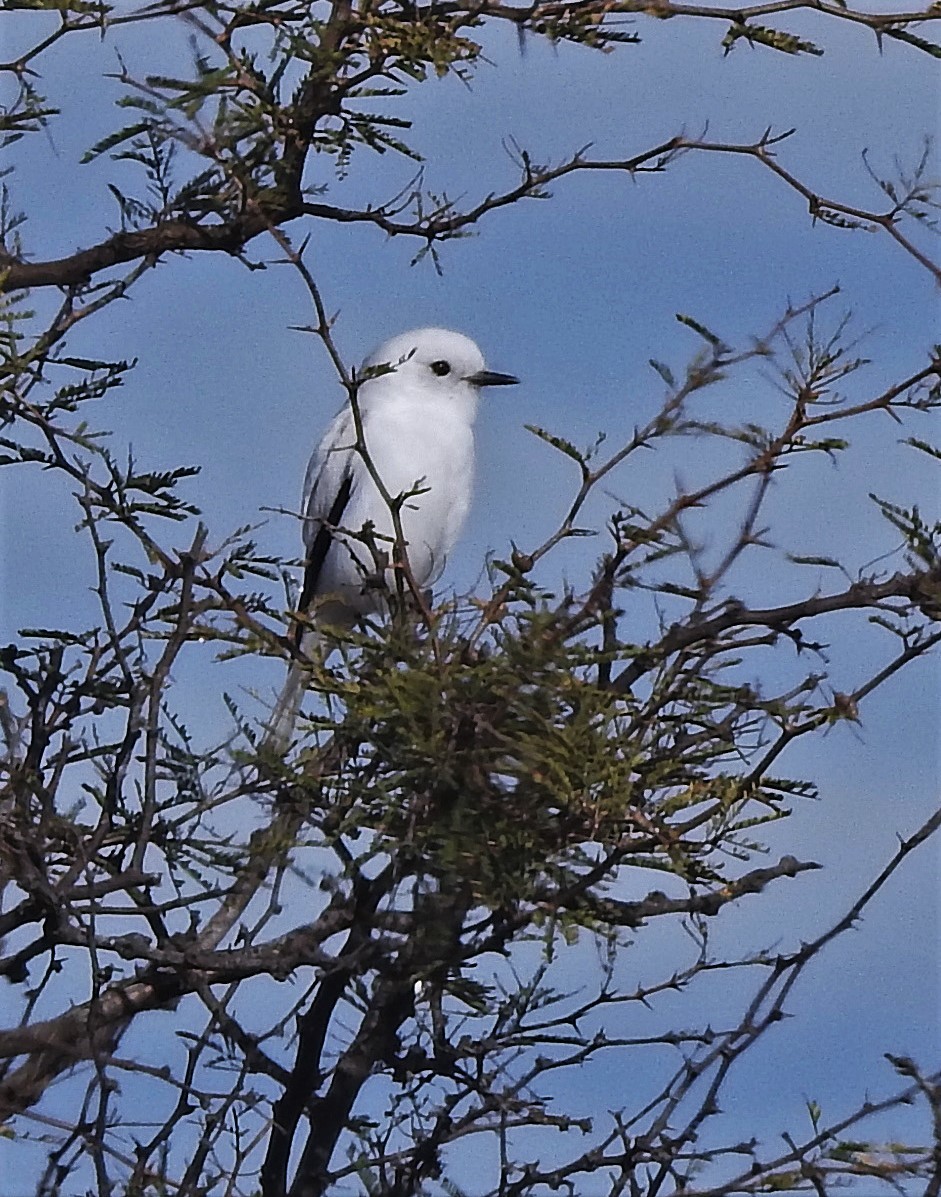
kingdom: Animalia
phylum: Chordata
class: Aves
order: Passeriformes
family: Tyrannidae
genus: Xolmis
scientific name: Xolmis irupero
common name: White monjita
